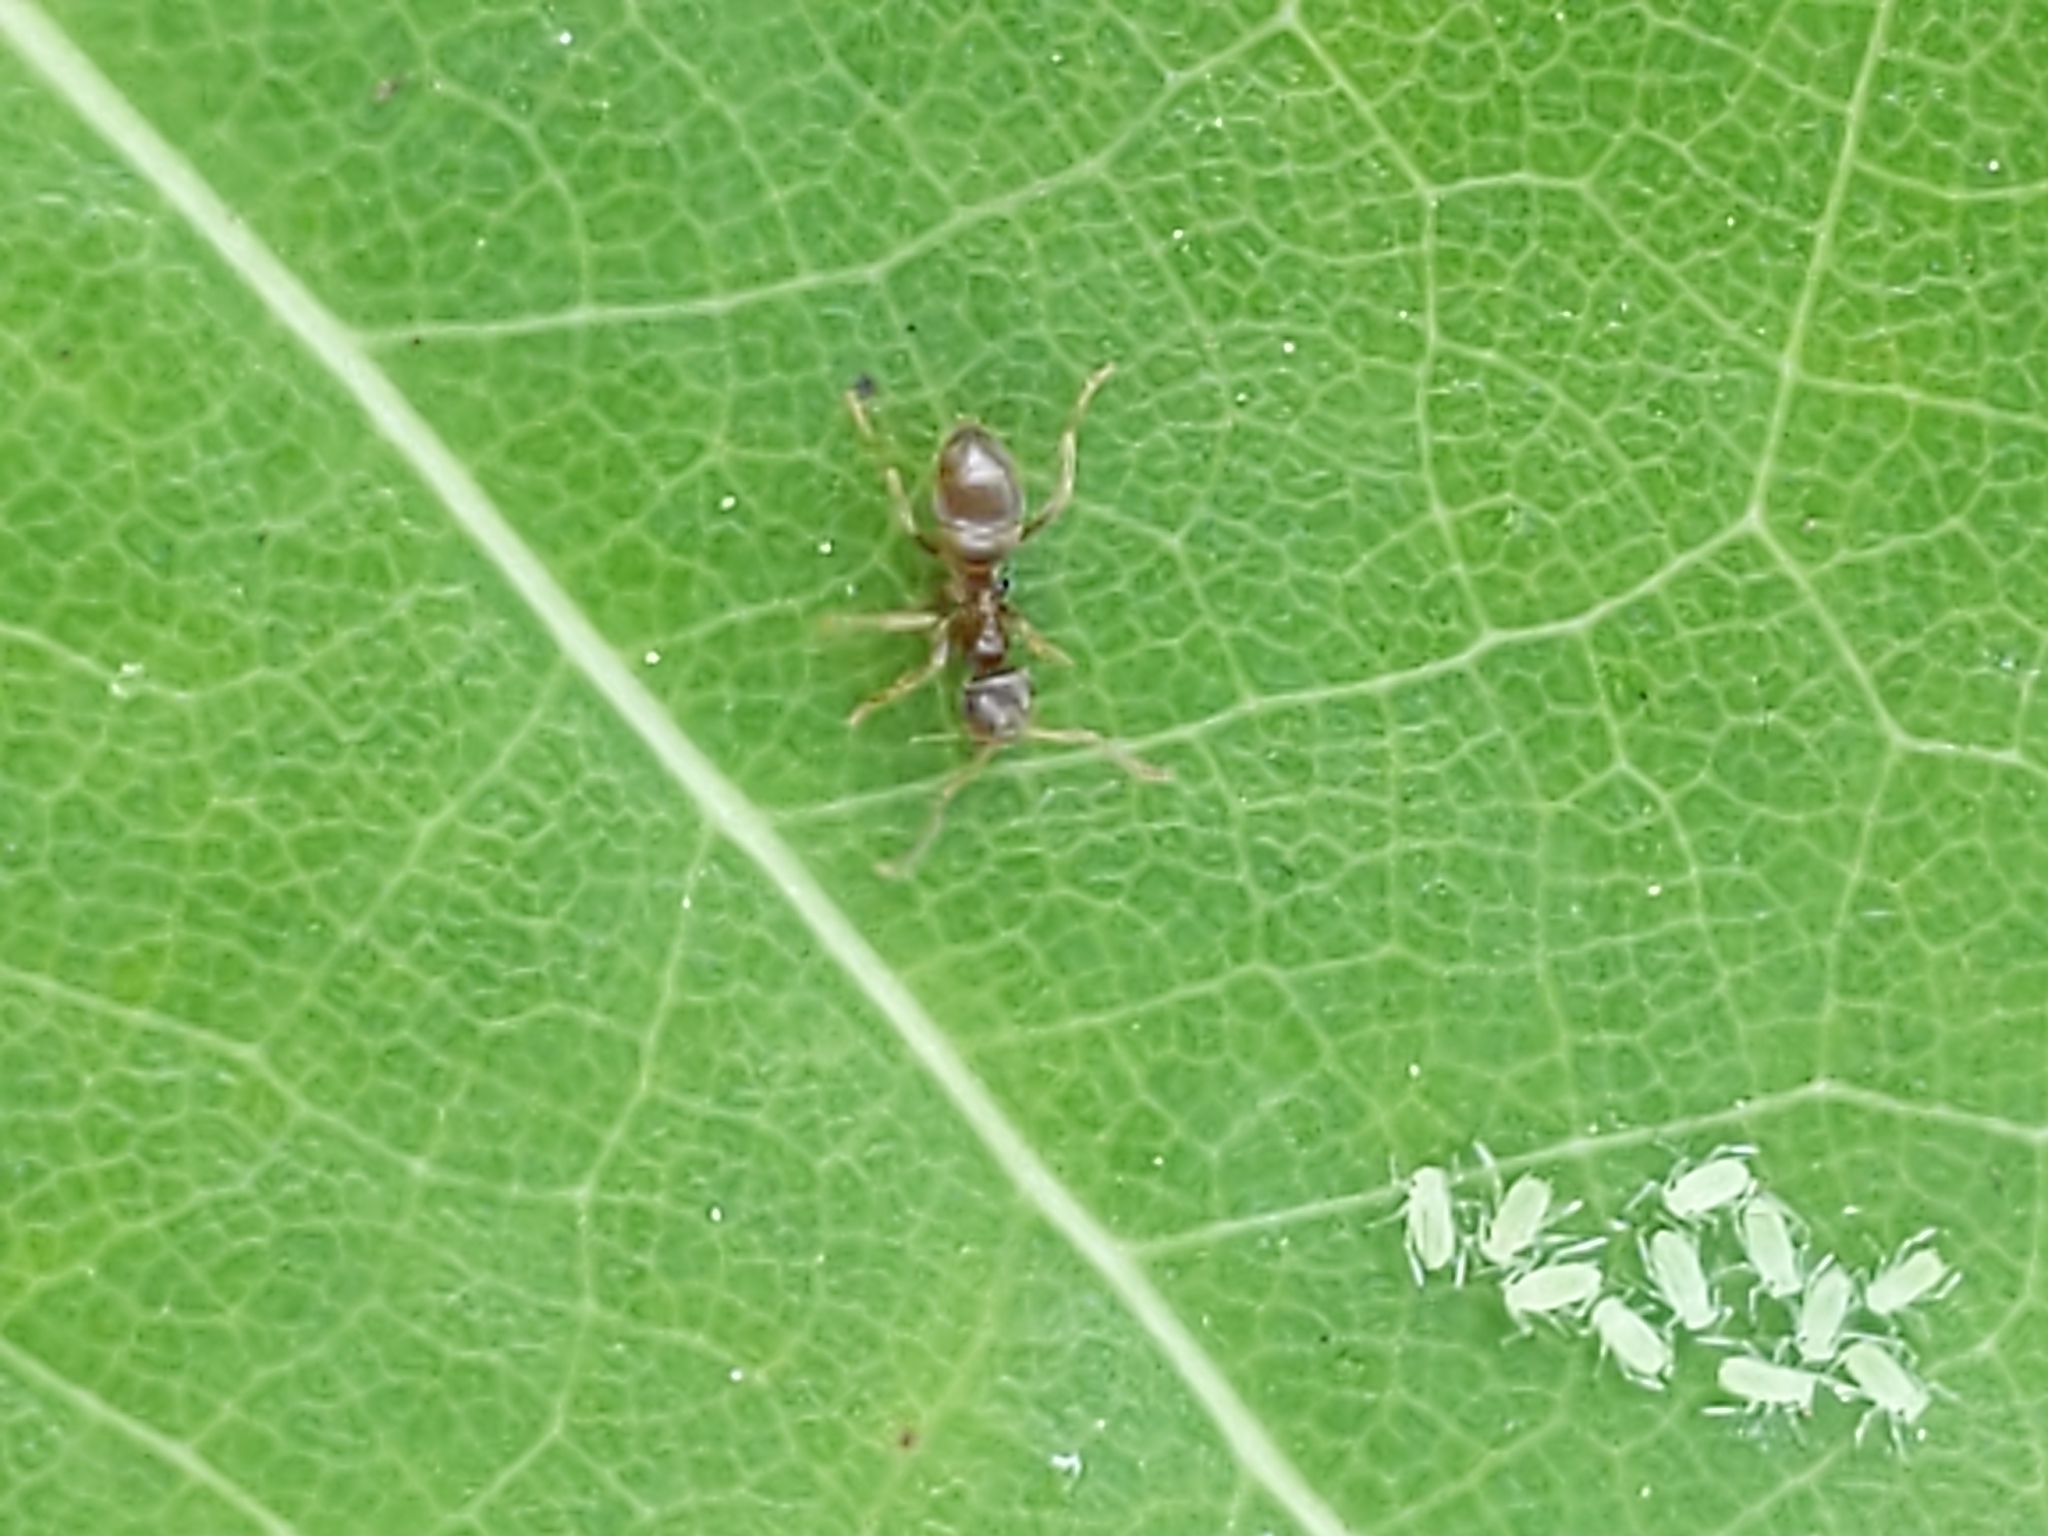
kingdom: Animalia
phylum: Arthropoda
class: Insecta
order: Hymenoptera
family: Formicidae
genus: Lasius
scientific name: Lasius
